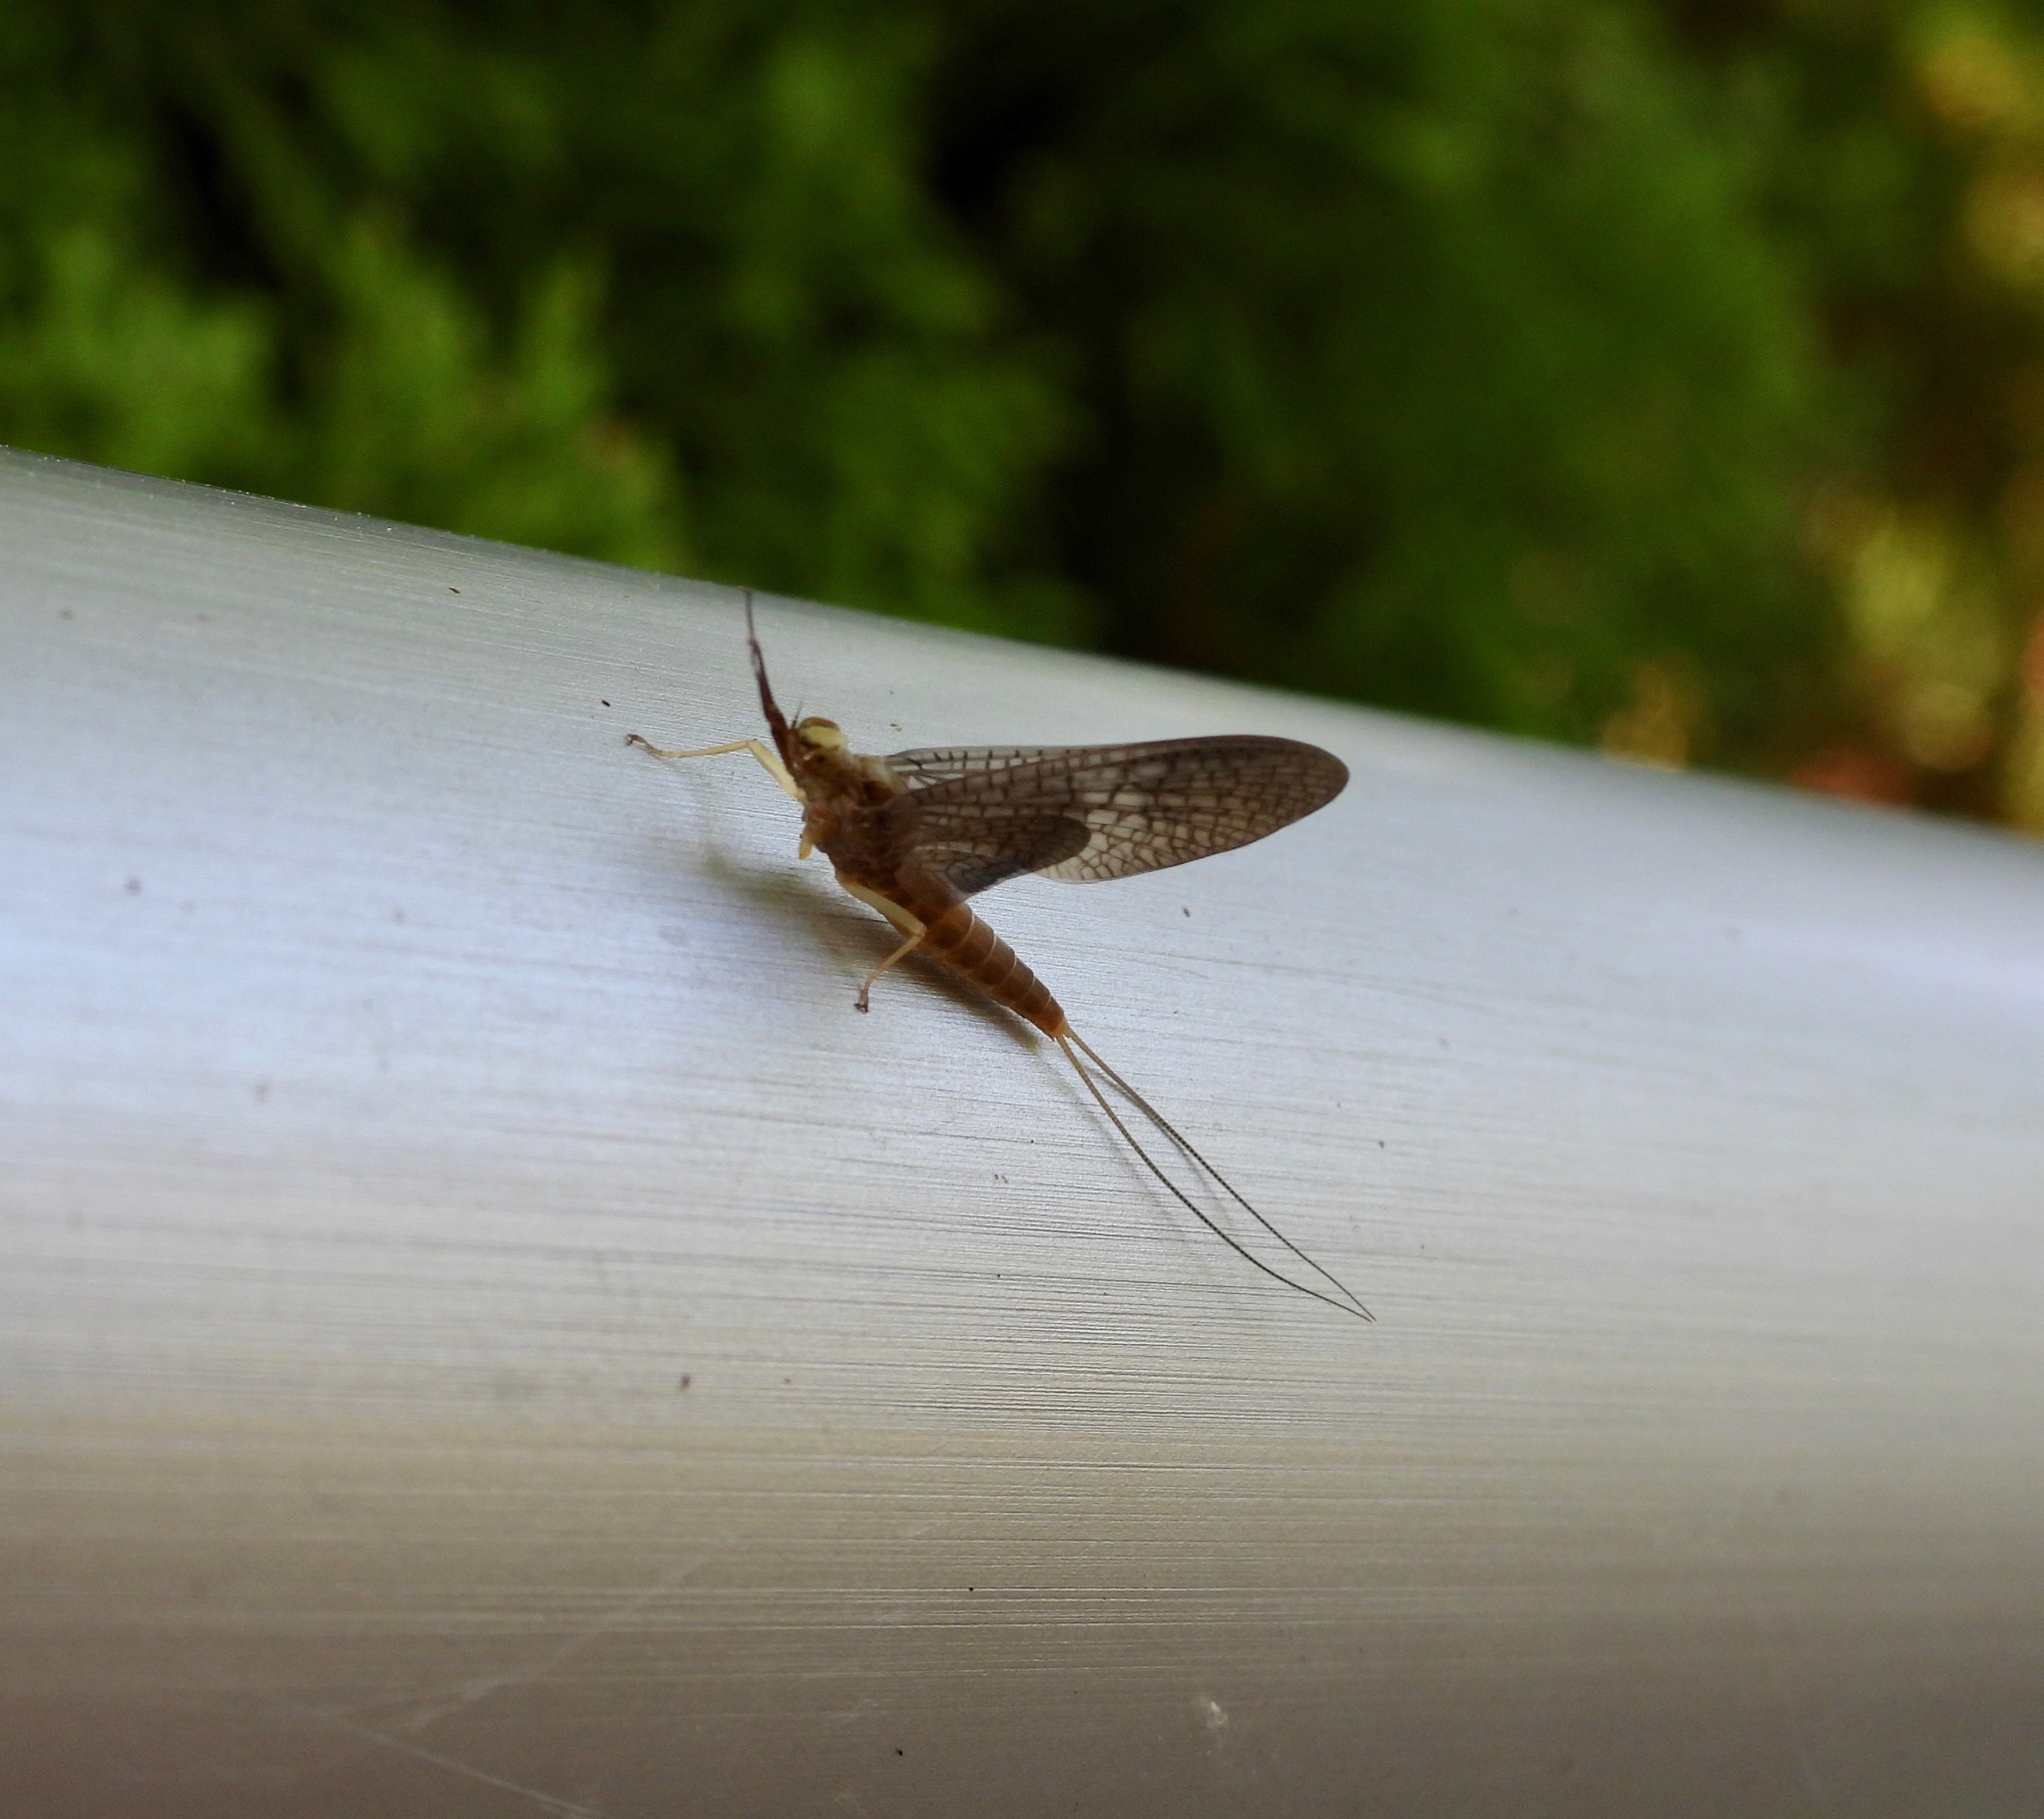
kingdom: Animalia
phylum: Arthropoda
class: Insecta
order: Ephemeroptera
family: Isonychiidae
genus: Isonychia
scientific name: Isonychia sicca
